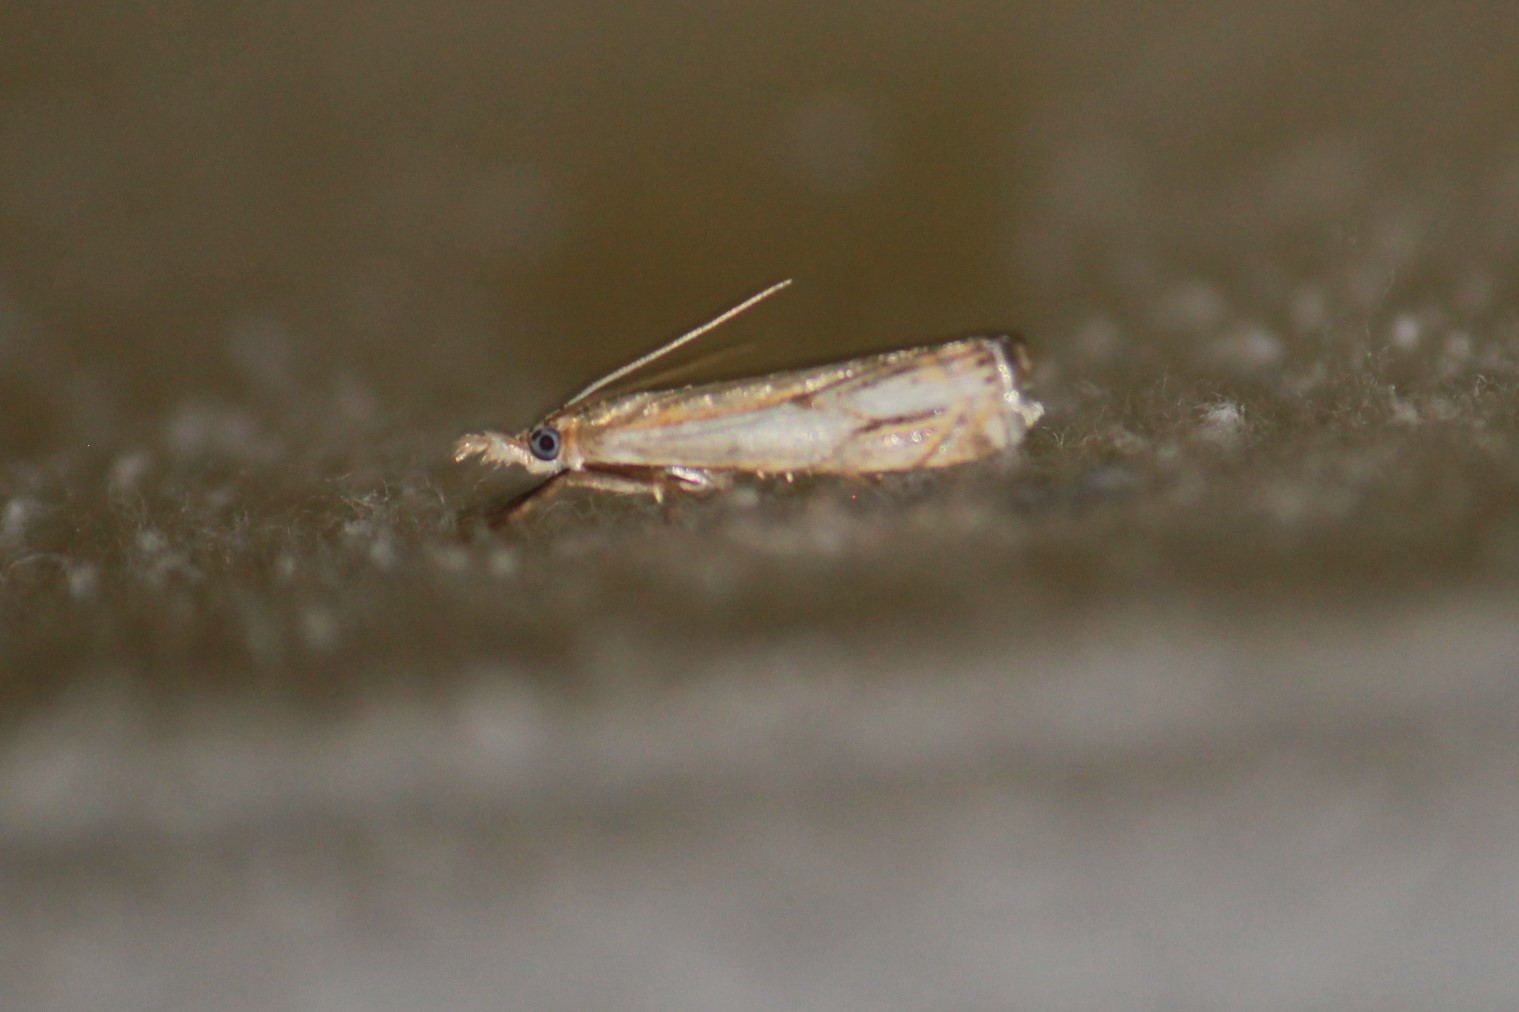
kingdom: Animalia
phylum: Arthropoda
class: Insecta
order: Lepidoptera
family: Crambidae
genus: Crambus
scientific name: Crambus agitatellus
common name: Double-banded grass-veneer
